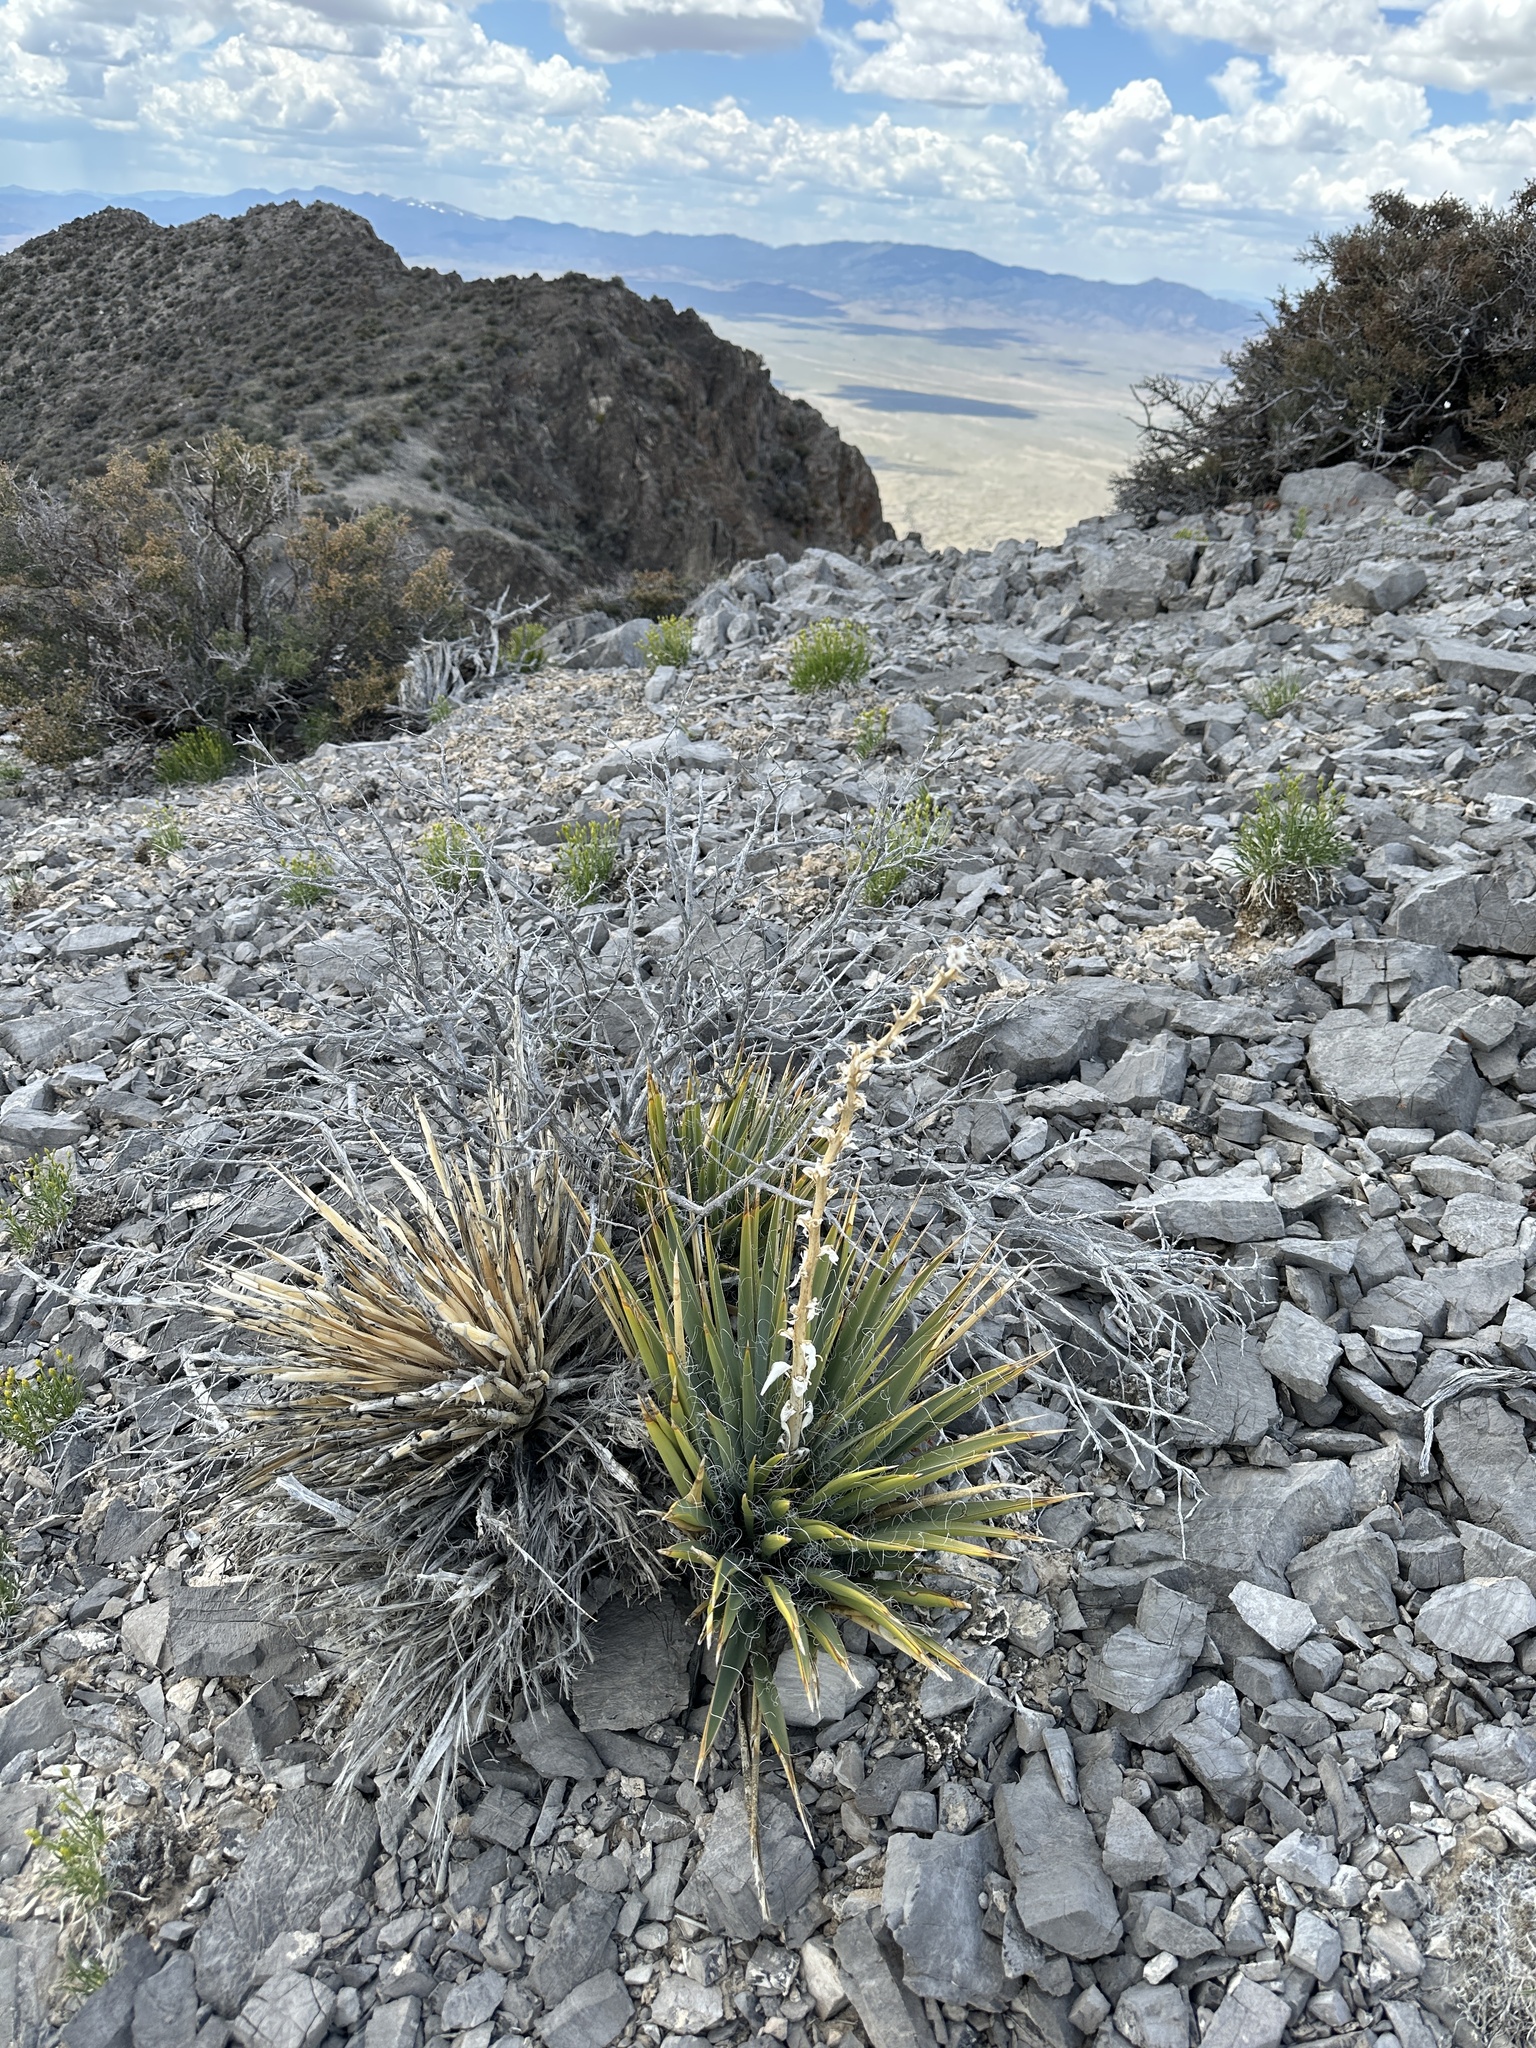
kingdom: Plantae
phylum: Tracheophyta
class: Liliopsida
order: Asparagales
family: Asparagaceae
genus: Yucca
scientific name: Yucca harrimaniae
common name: Harriman's yucca
